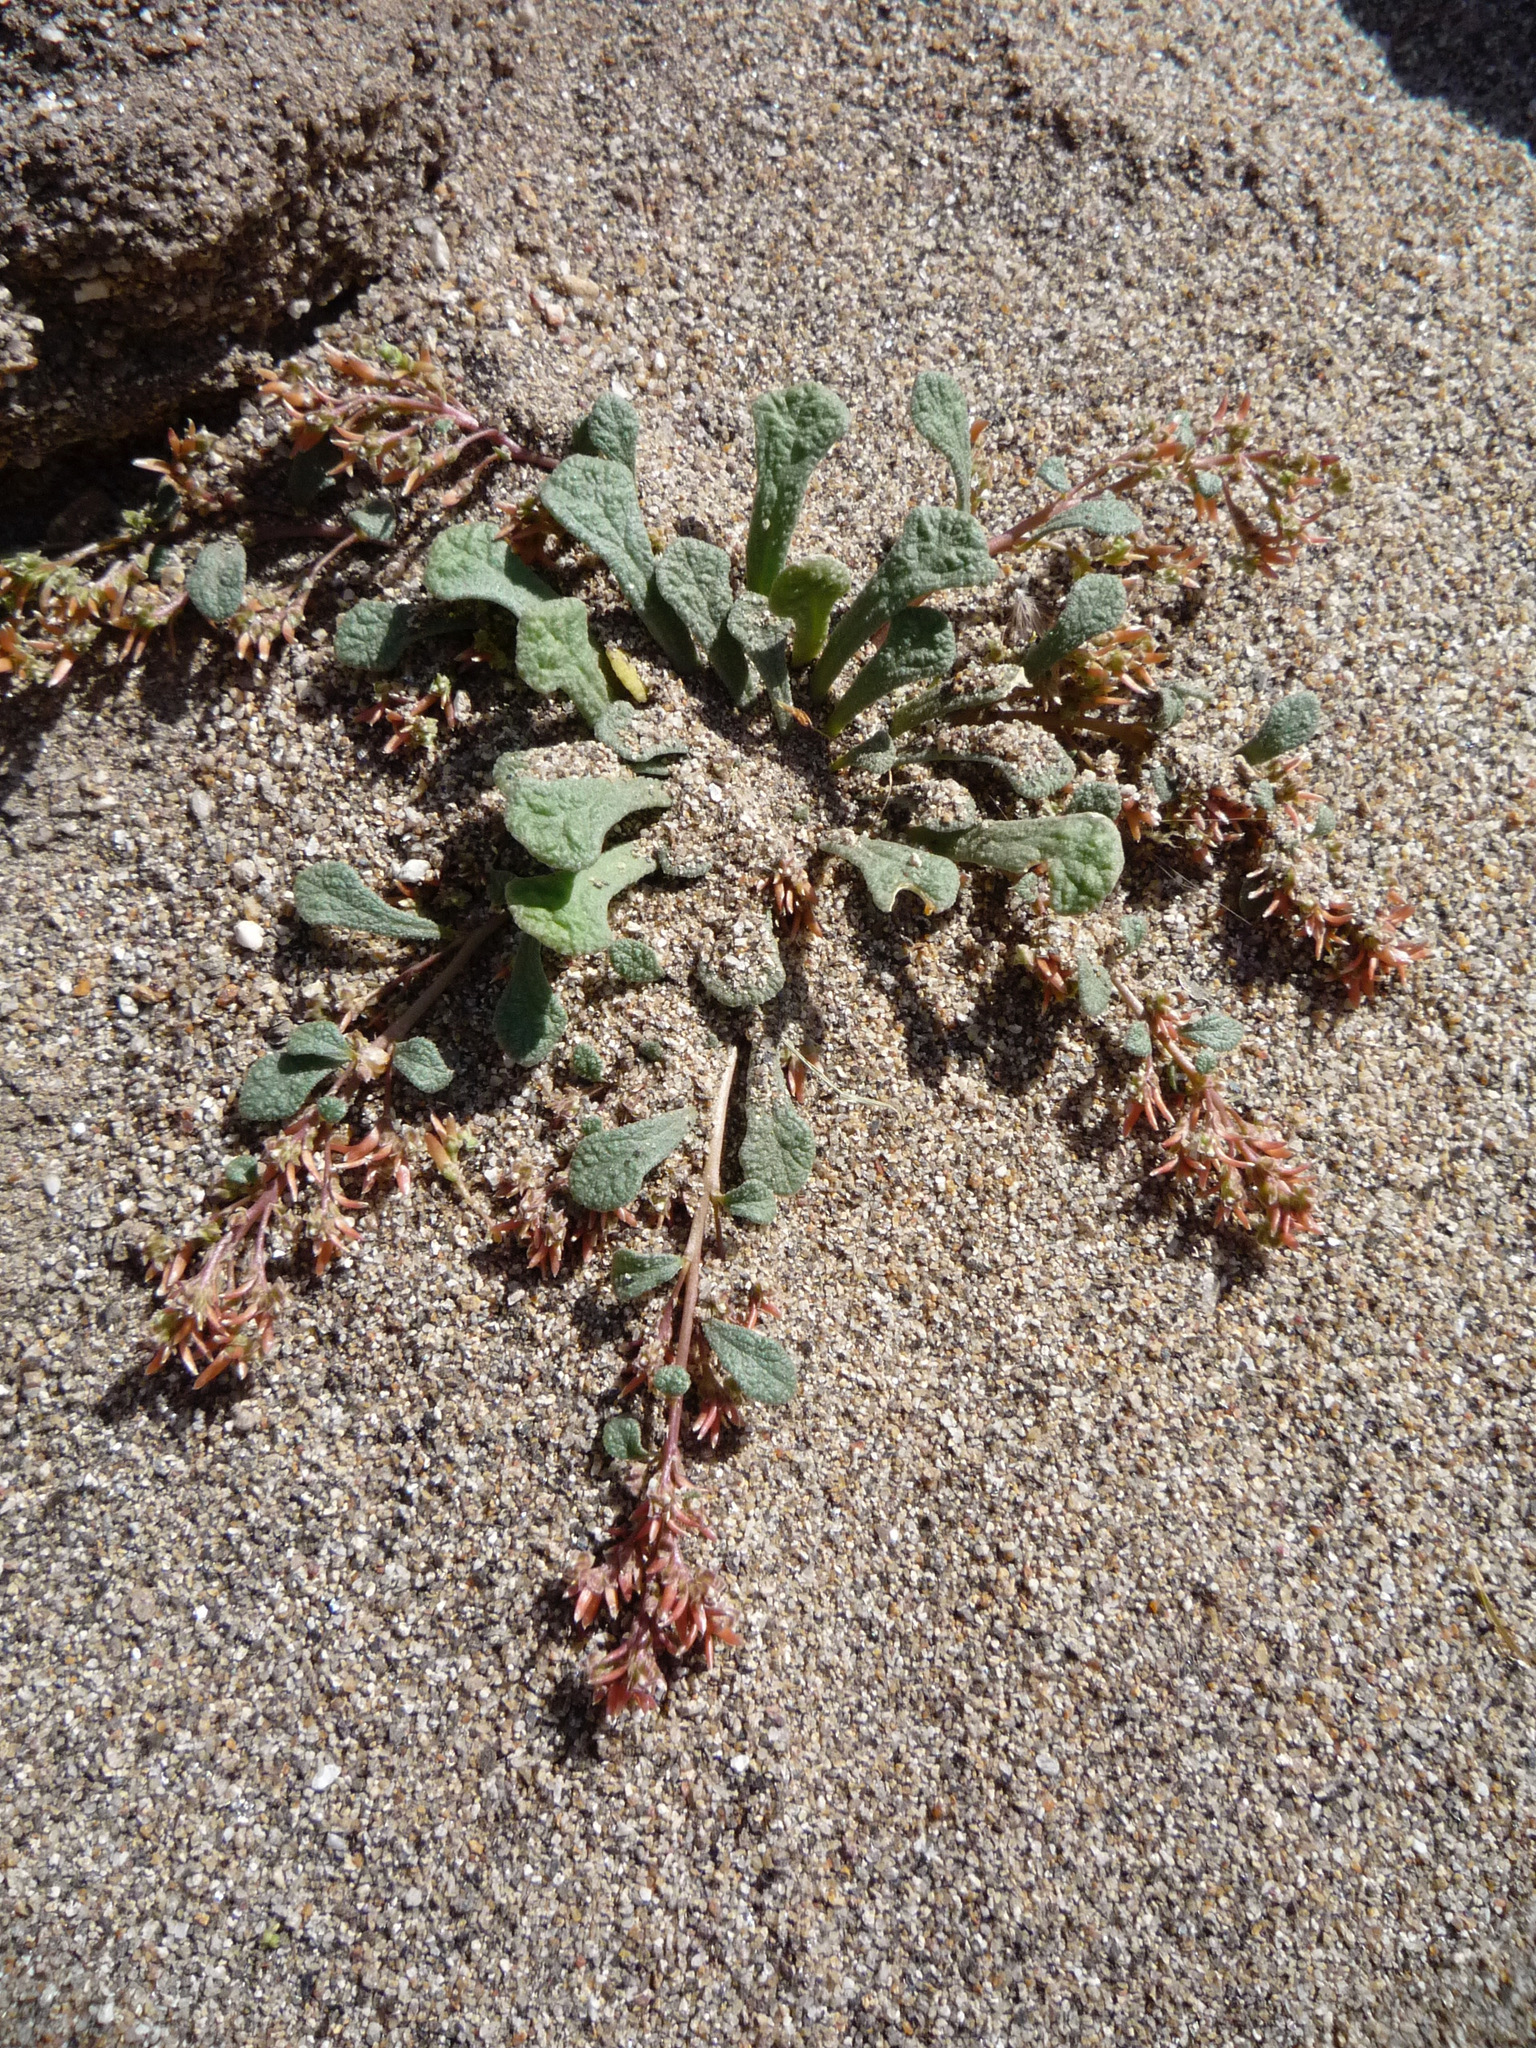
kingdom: Plantae
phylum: Tracheophyta
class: Magnoliopsida
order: Caryophyllales
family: Montiaceae
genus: Calyptridium
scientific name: Calyptridium monandrum
